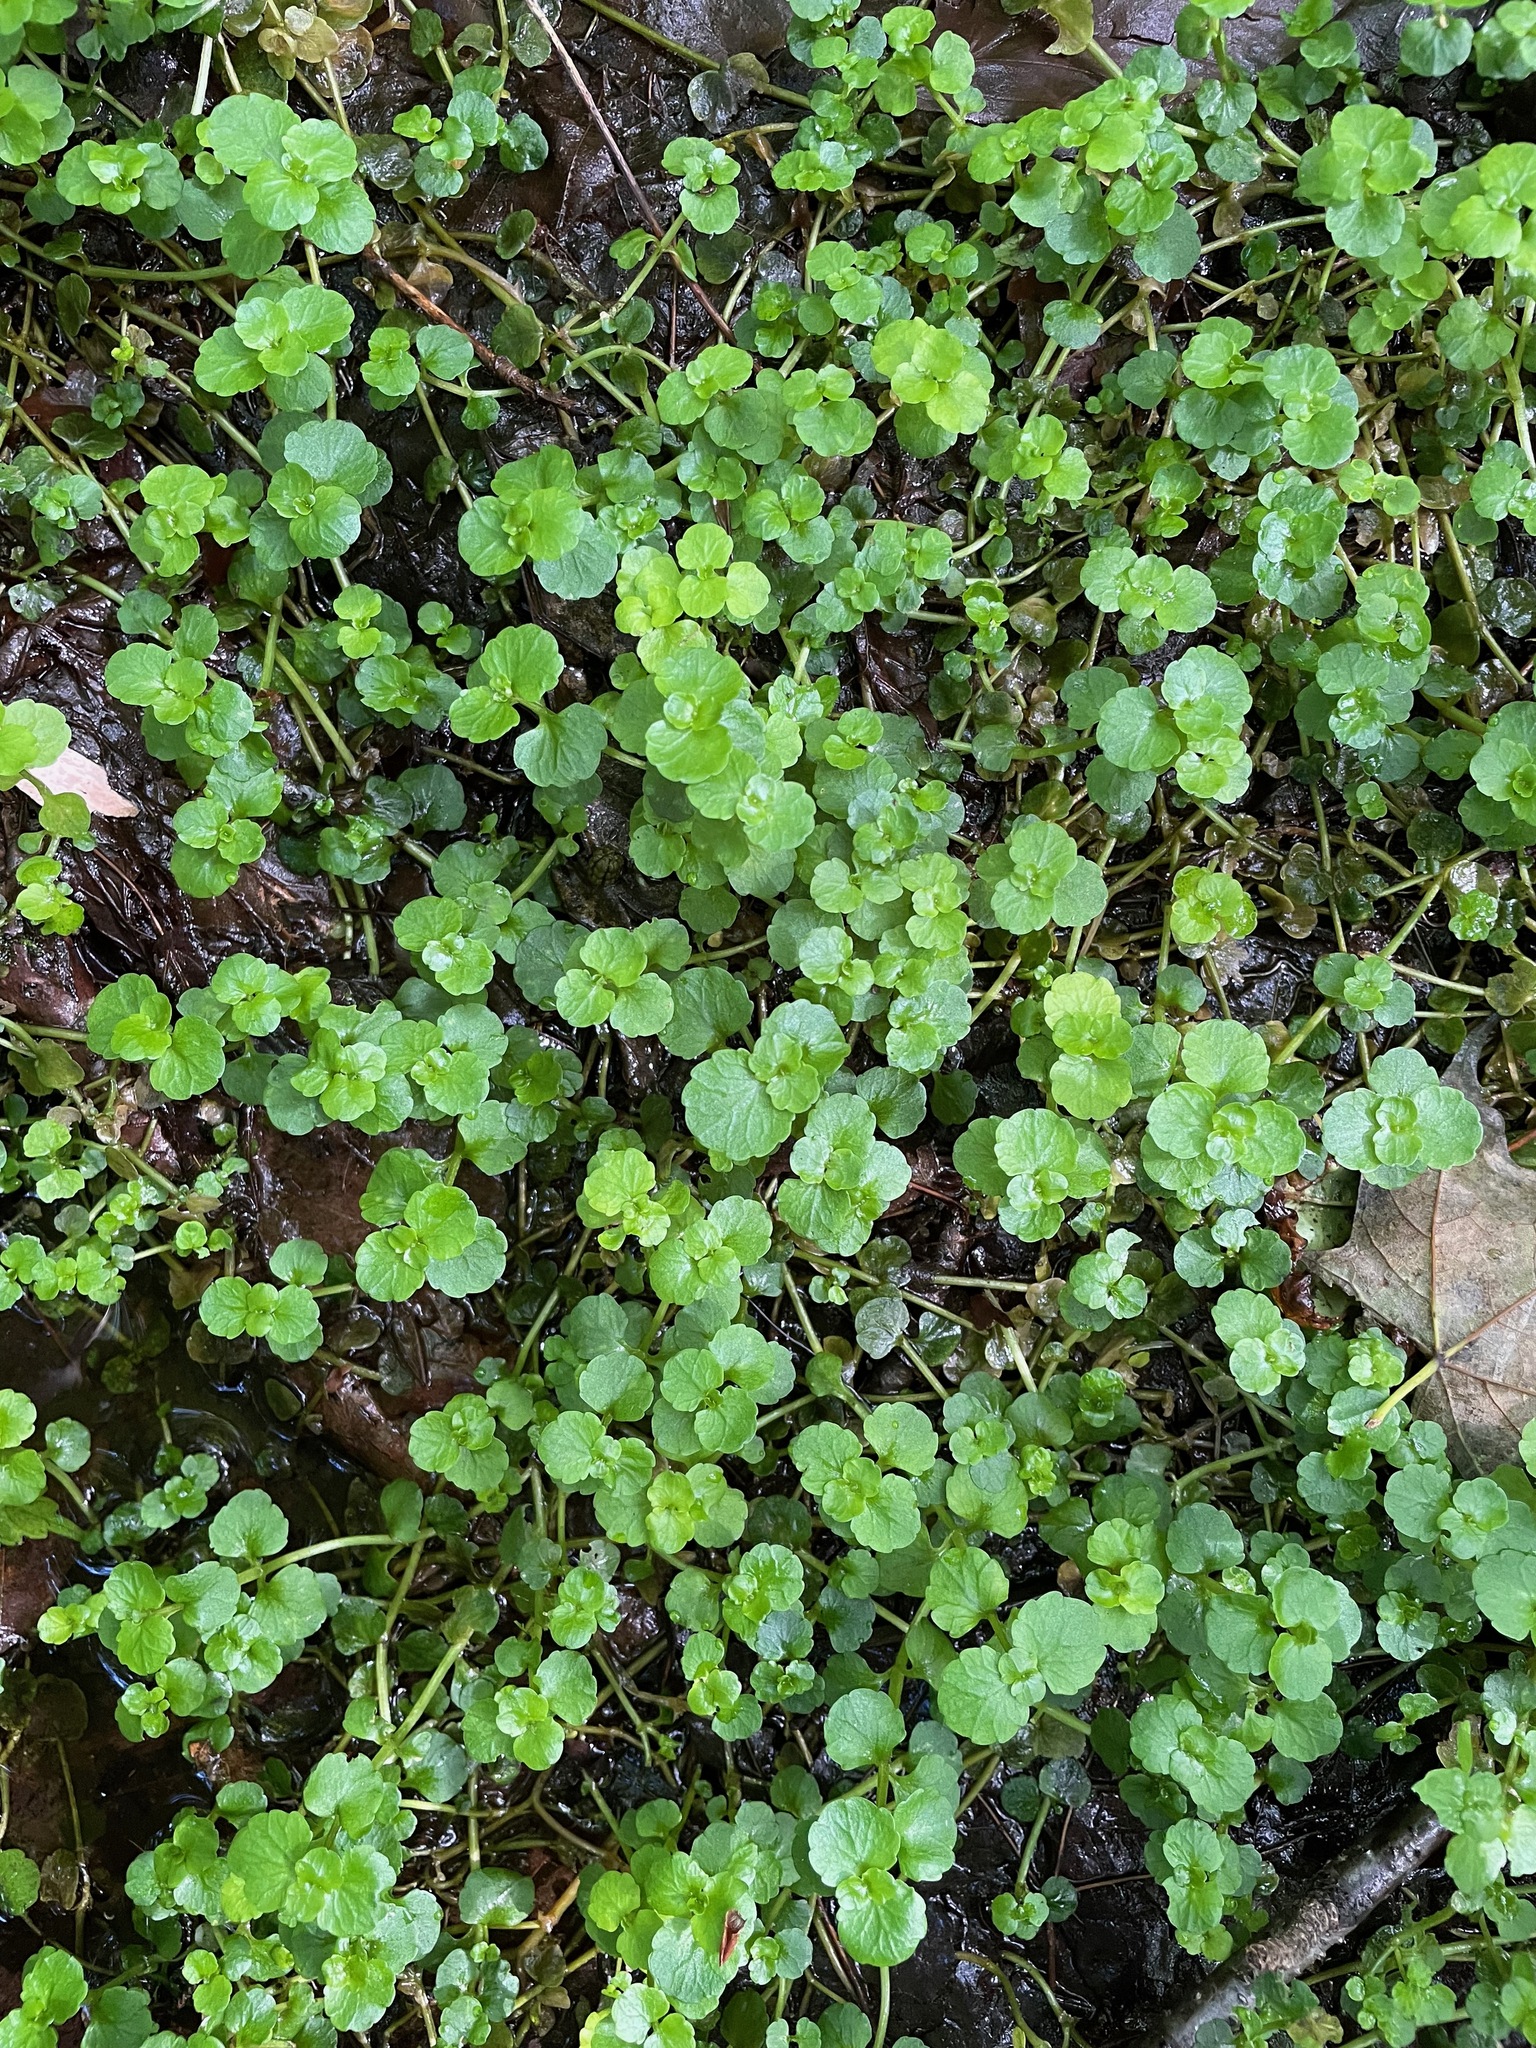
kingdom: Plantae
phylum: Tracheophyta
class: Magnoliopsida
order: Saxifragales
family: Saxifragaceae
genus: Chrysosplenium
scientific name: Chrysosplenium americanum
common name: American golden-saxifrage
